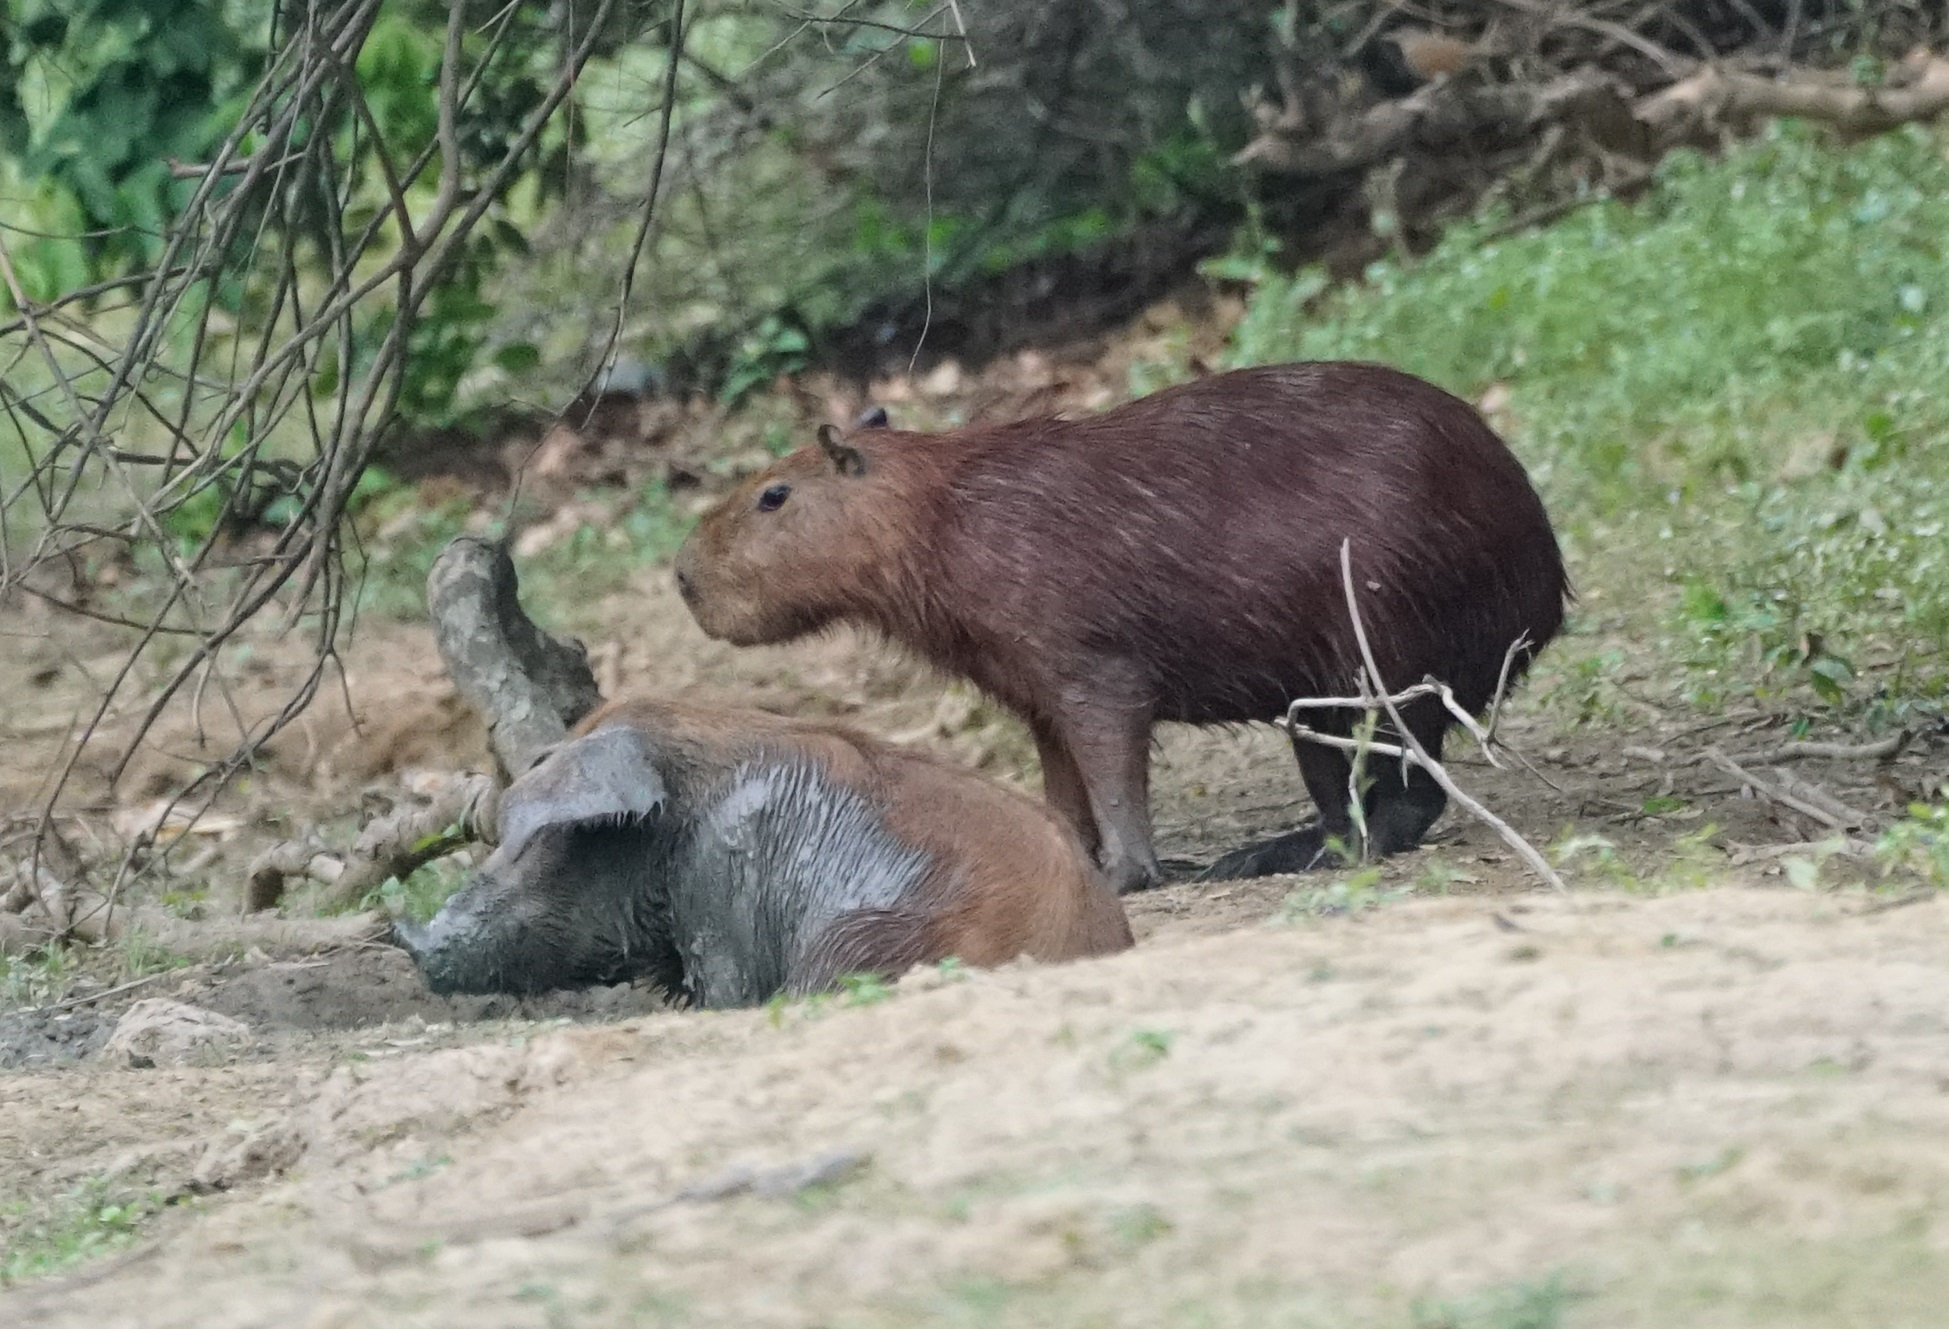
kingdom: Animalia
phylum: Chordata
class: Mammalia
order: Rodentia
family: Caviidae
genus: Hydrochoerus
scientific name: Hydrochoerus hydrochaeris
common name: Capybara
